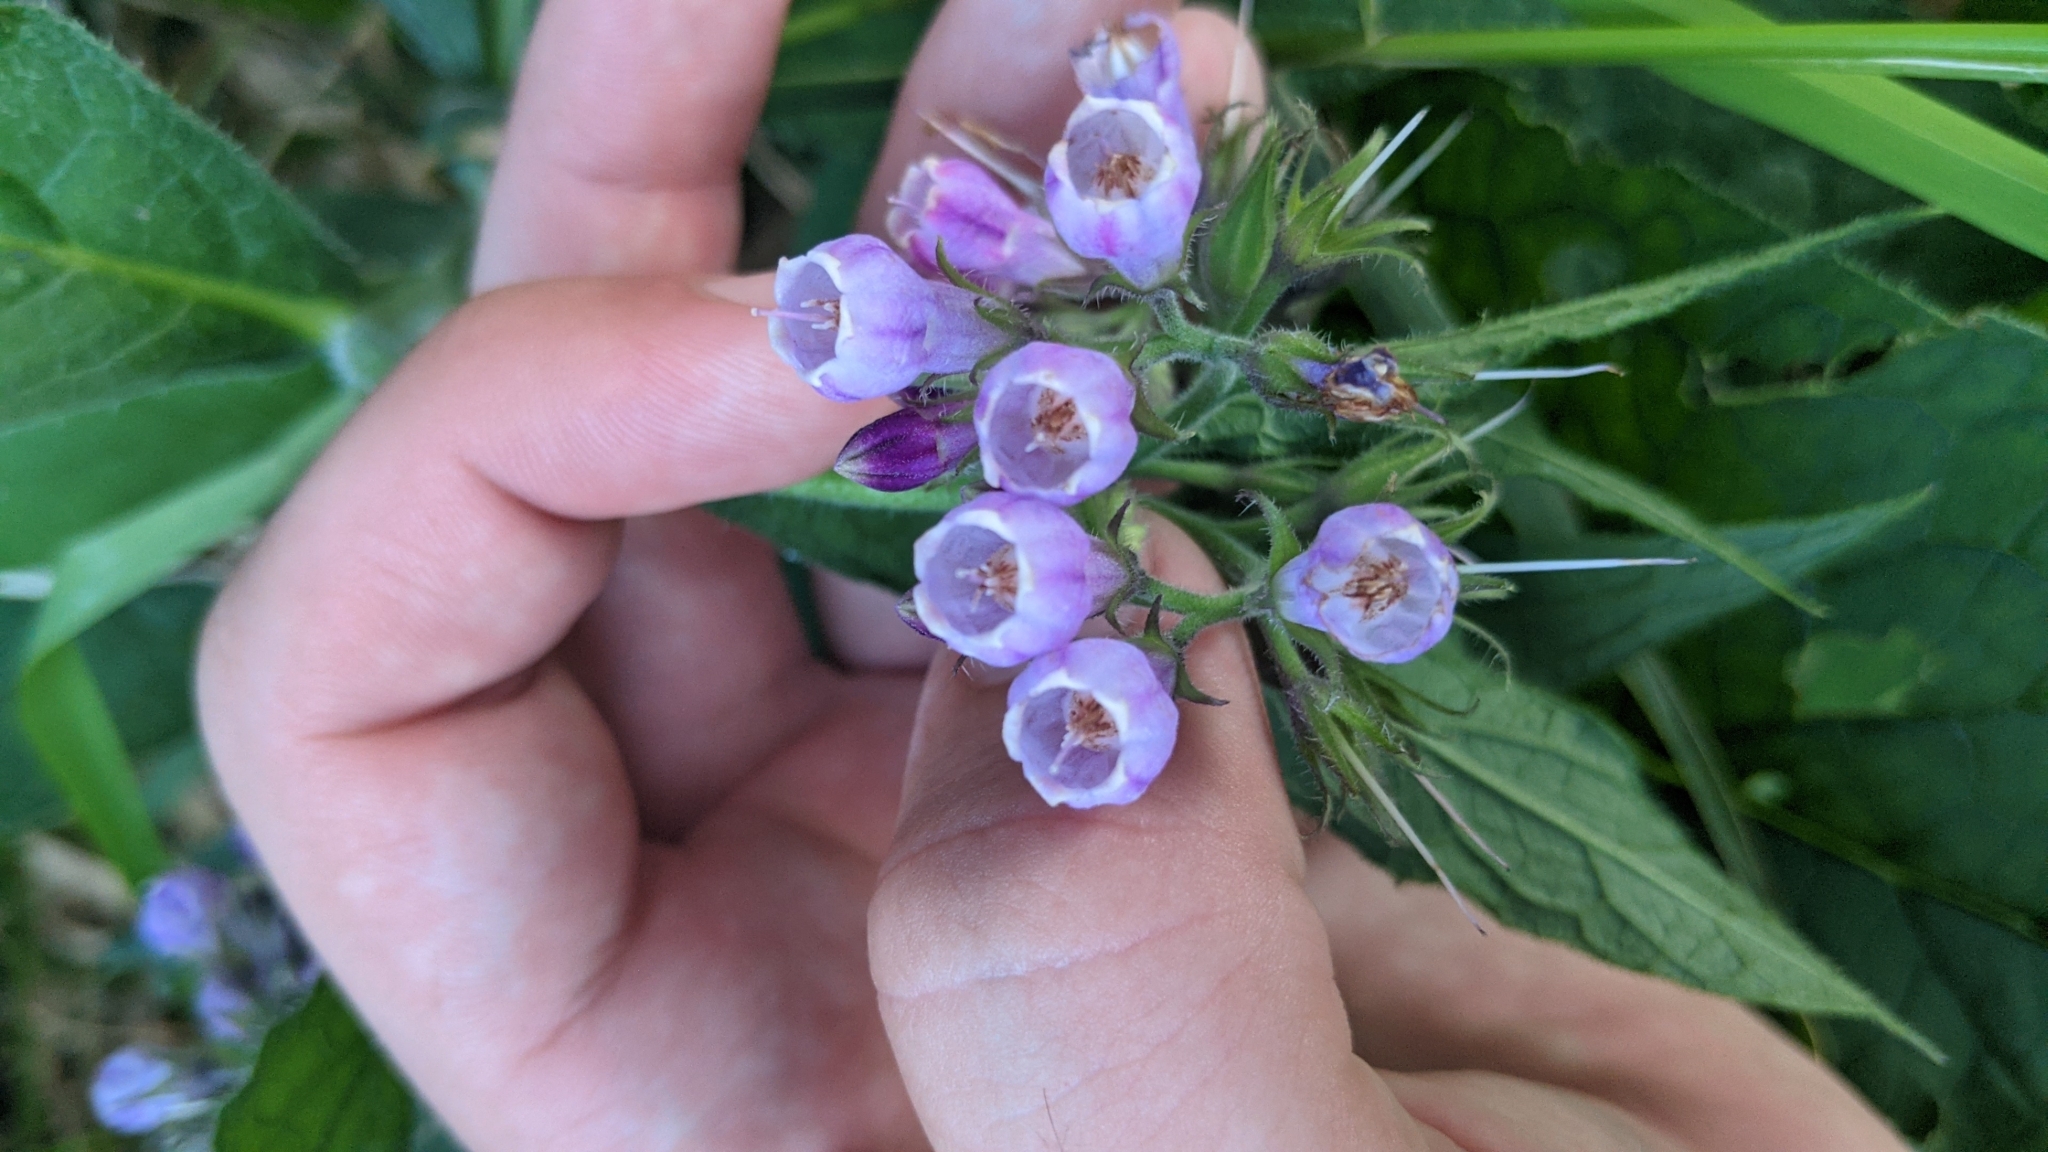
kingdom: Plantae
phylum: Tracheophyta
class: Magnoliopsida
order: Boraginales
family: Boraginaceae
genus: Symphytum
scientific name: Symphytum officinale
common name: Common comfrey
